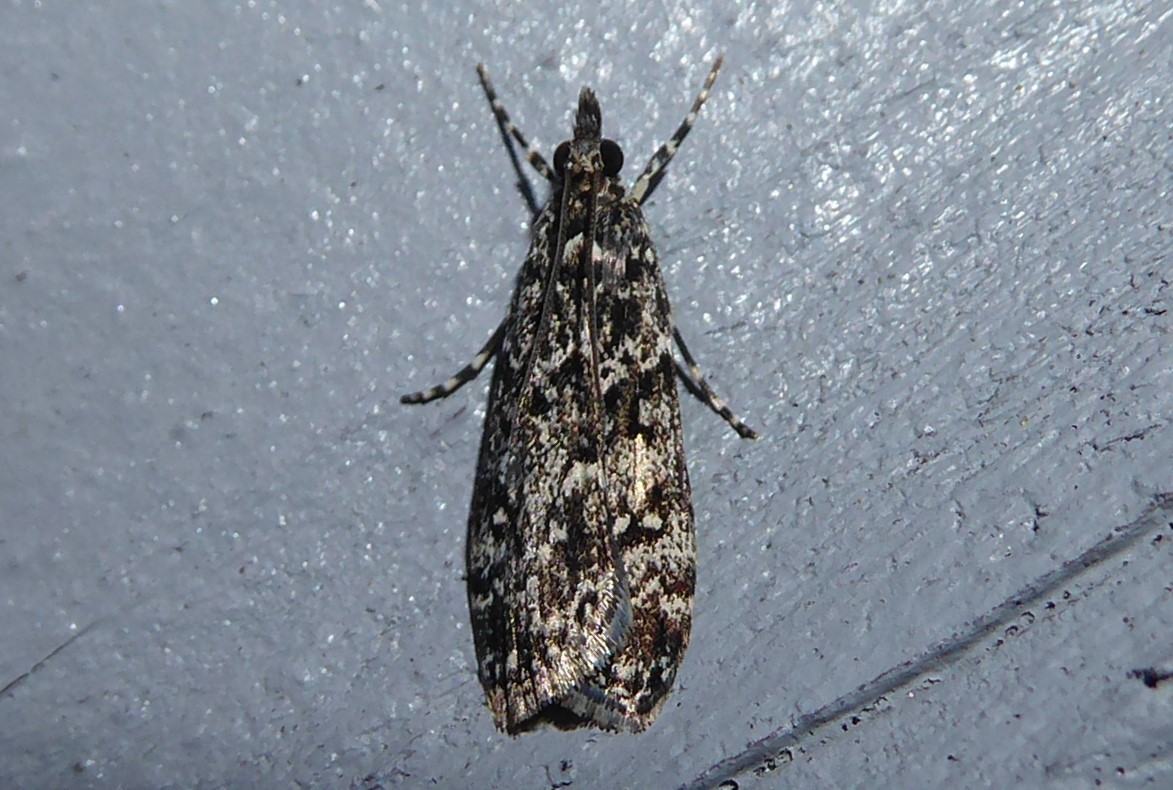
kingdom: Animalia
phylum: Arthropoda
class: Insecta
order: Lepidoptera
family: Crambidae
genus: Eudonia
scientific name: Eudonia philerga
